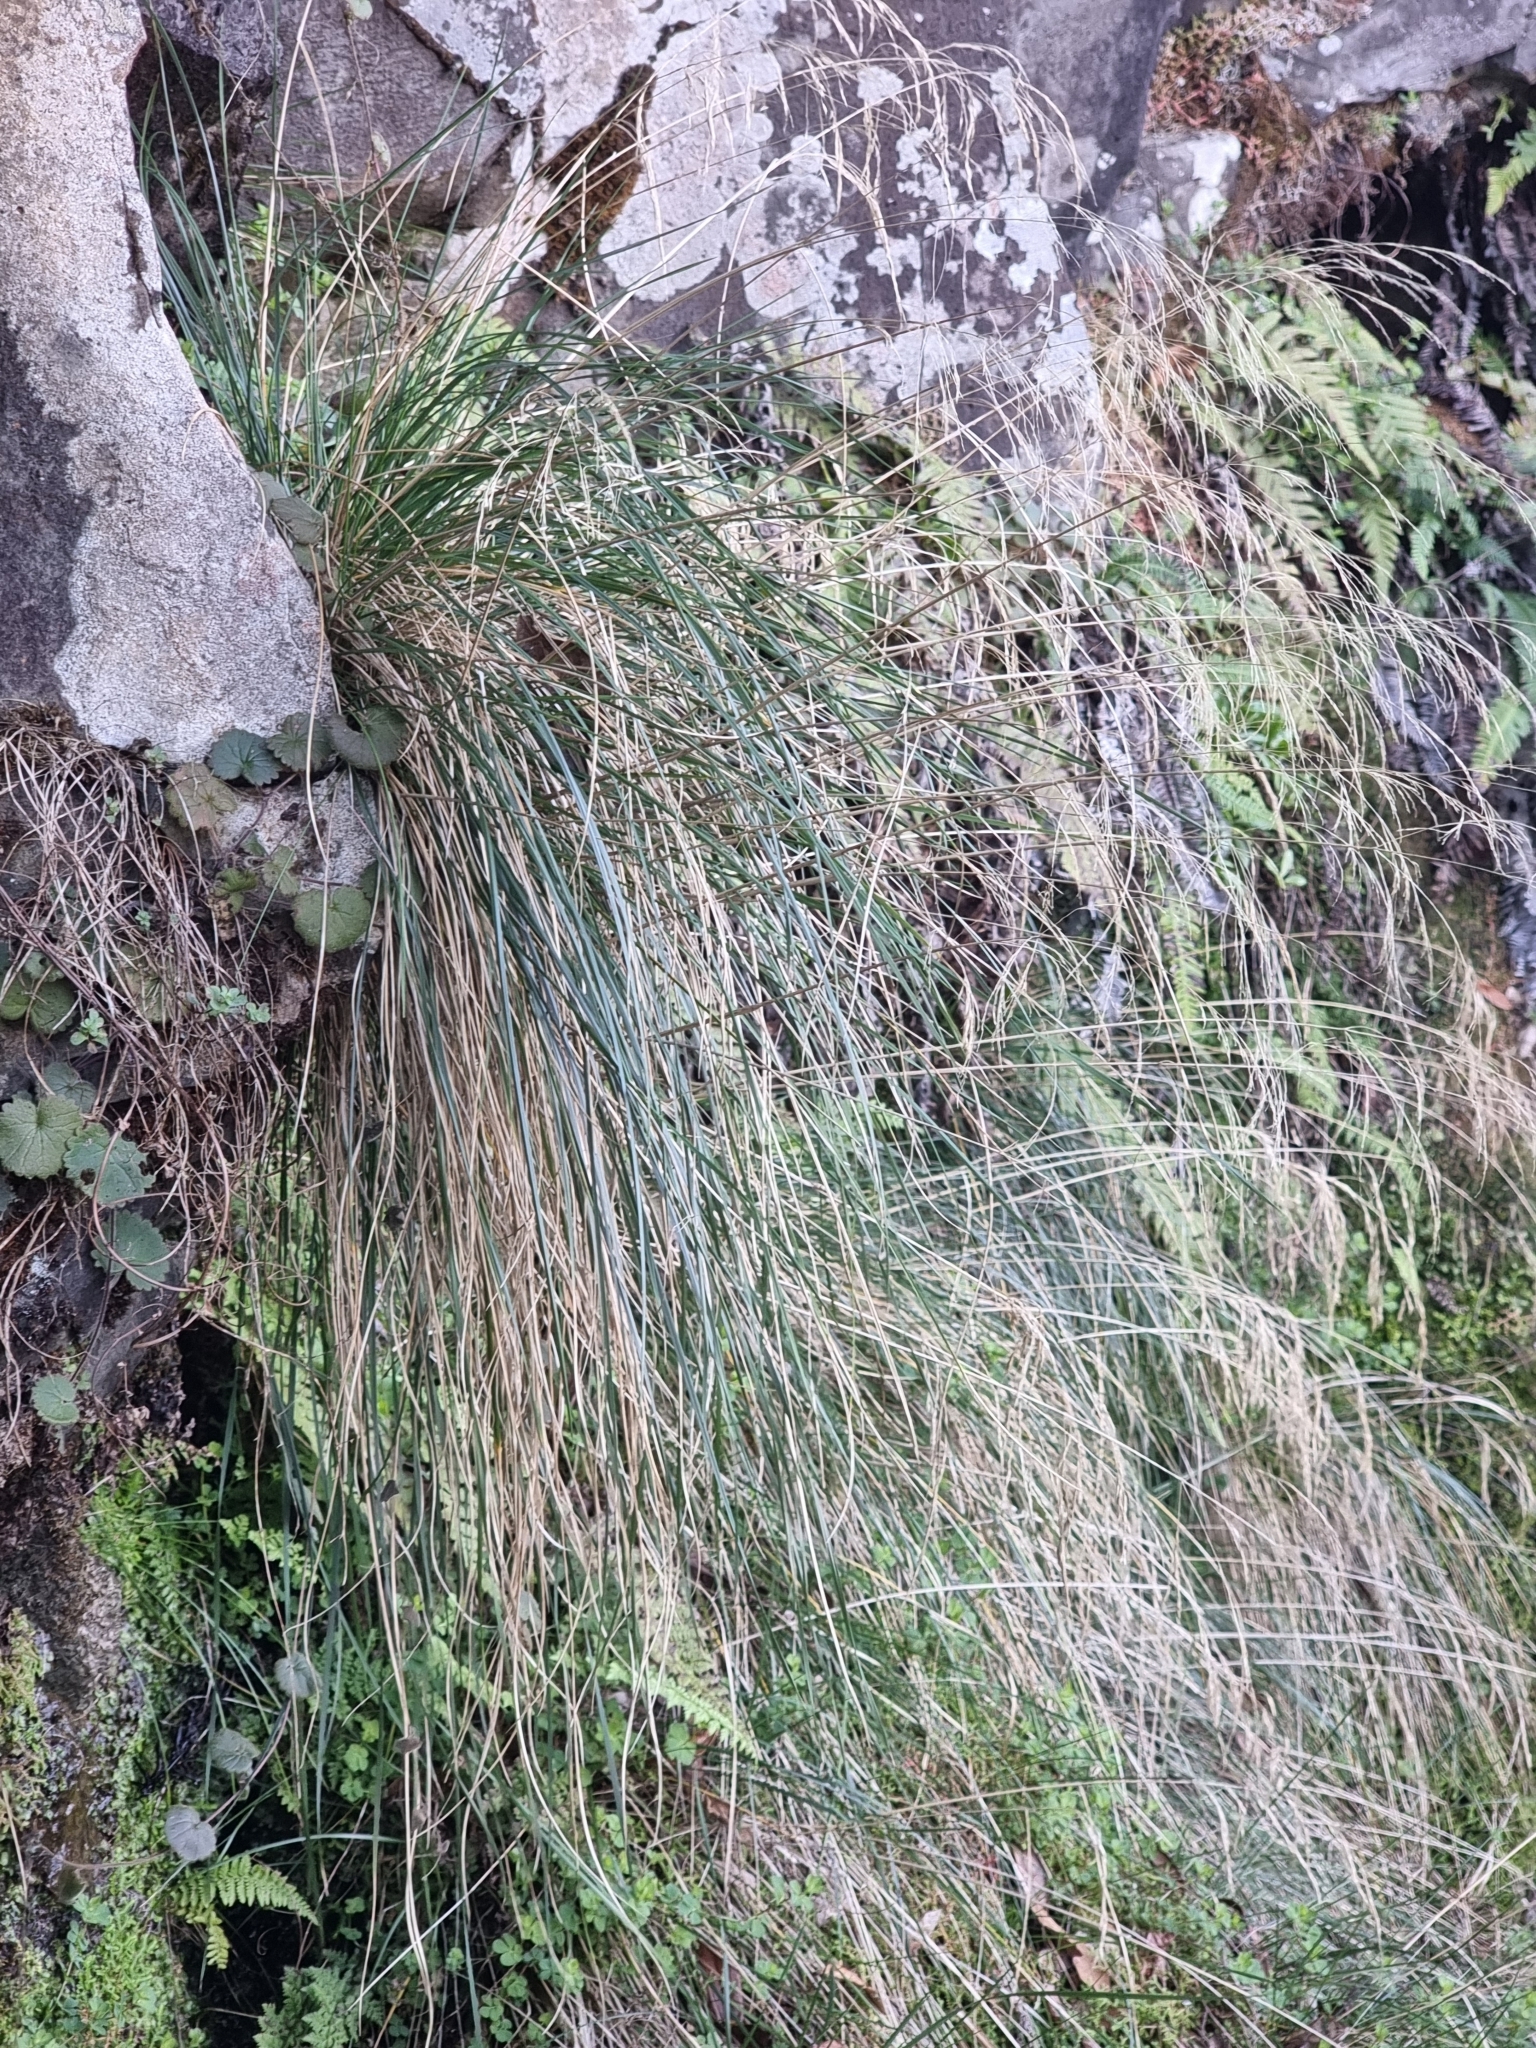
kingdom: Plantae
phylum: Tracheophyta
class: Liliopsida
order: Poales
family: Poaceae
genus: Festuca
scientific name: Festuca donax
